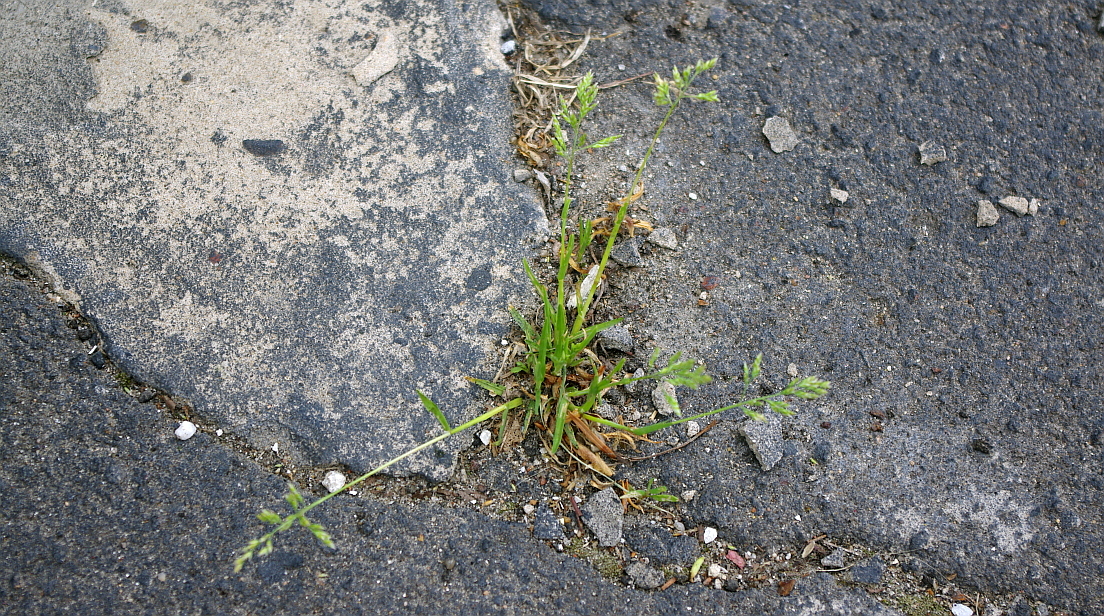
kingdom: Plantae
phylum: Tracheophyta
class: Liliopsida
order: Poales
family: Poaceae
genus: Poa
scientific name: Poa annua
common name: Annual bluegrass
